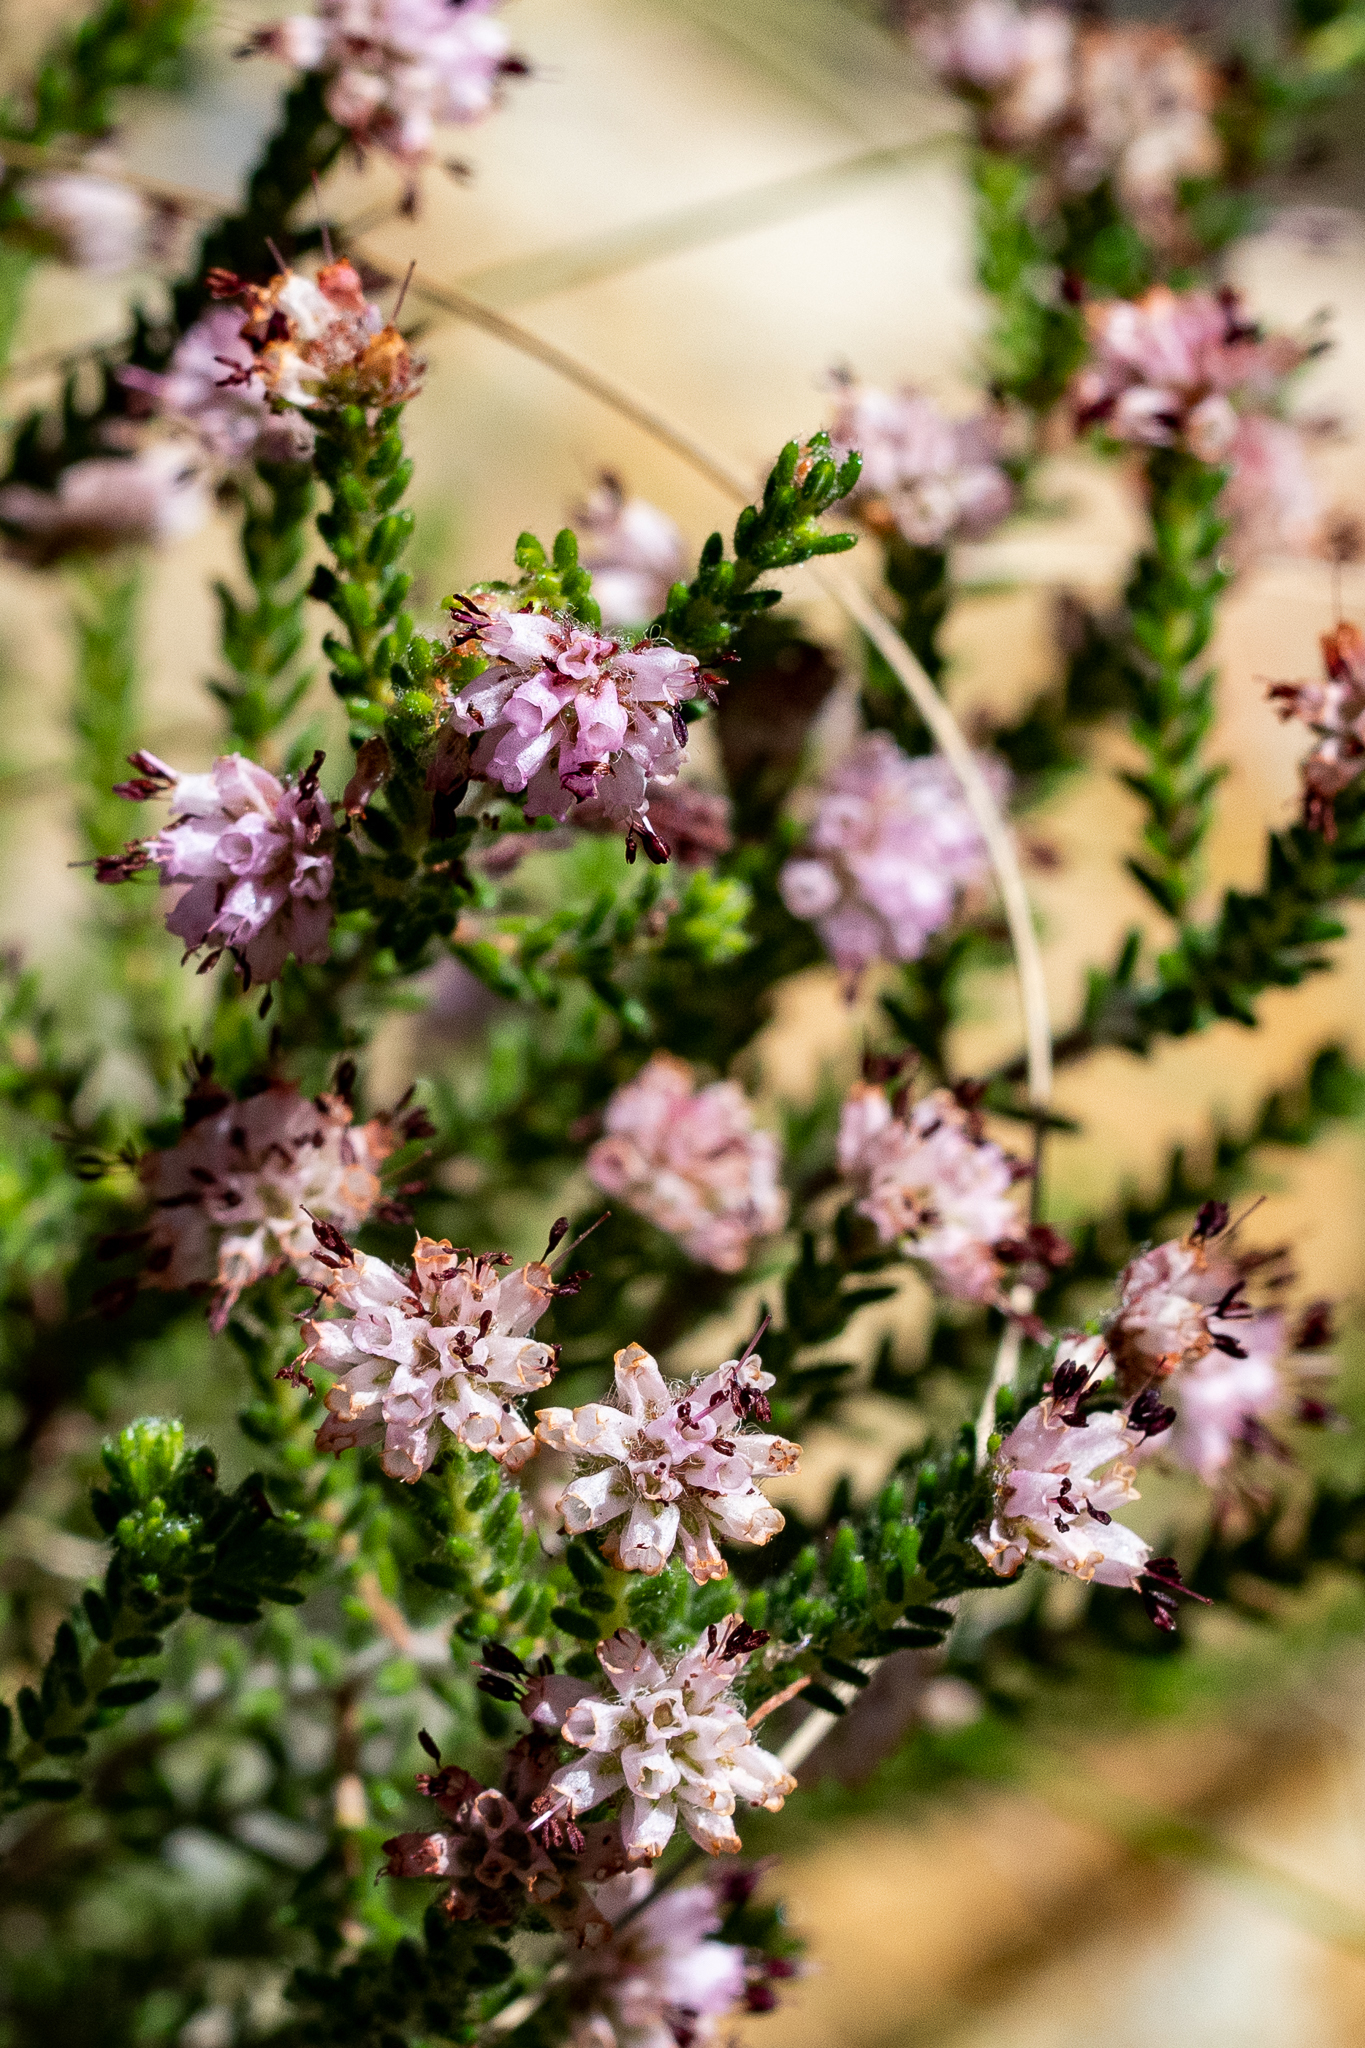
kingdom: Plantae
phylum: Tracheophyta
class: Magnoliopsida
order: Ericales
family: Ericaceae
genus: Erica
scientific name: Erica similis
